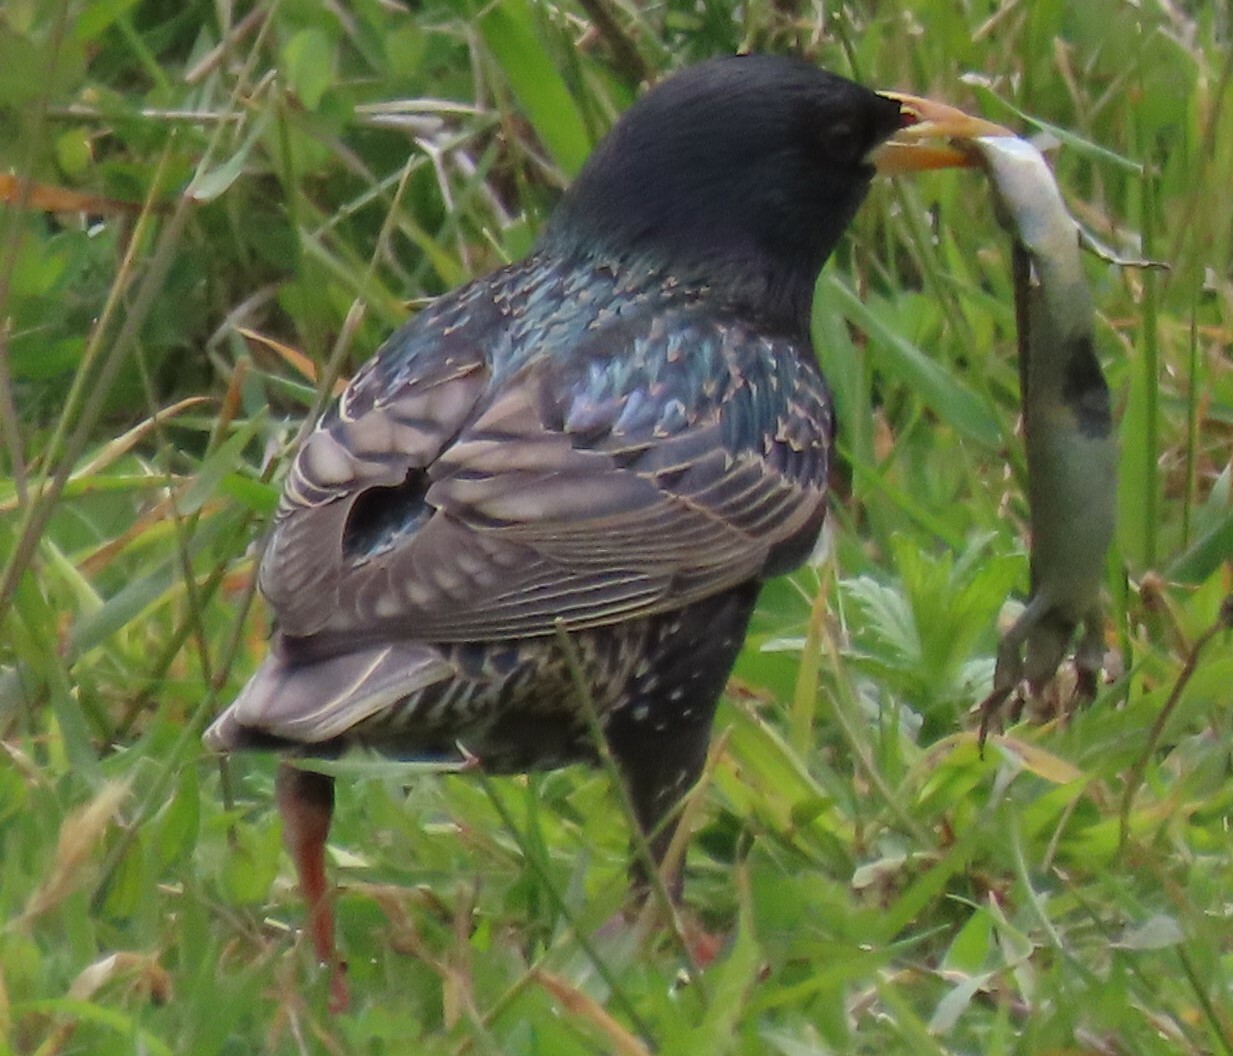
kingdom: Animalia
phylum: Chordata
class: Aves
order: Passeriformes
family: Sturnidae
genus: Sturnus
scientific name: Sturnus vulgaris
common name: Common starling
